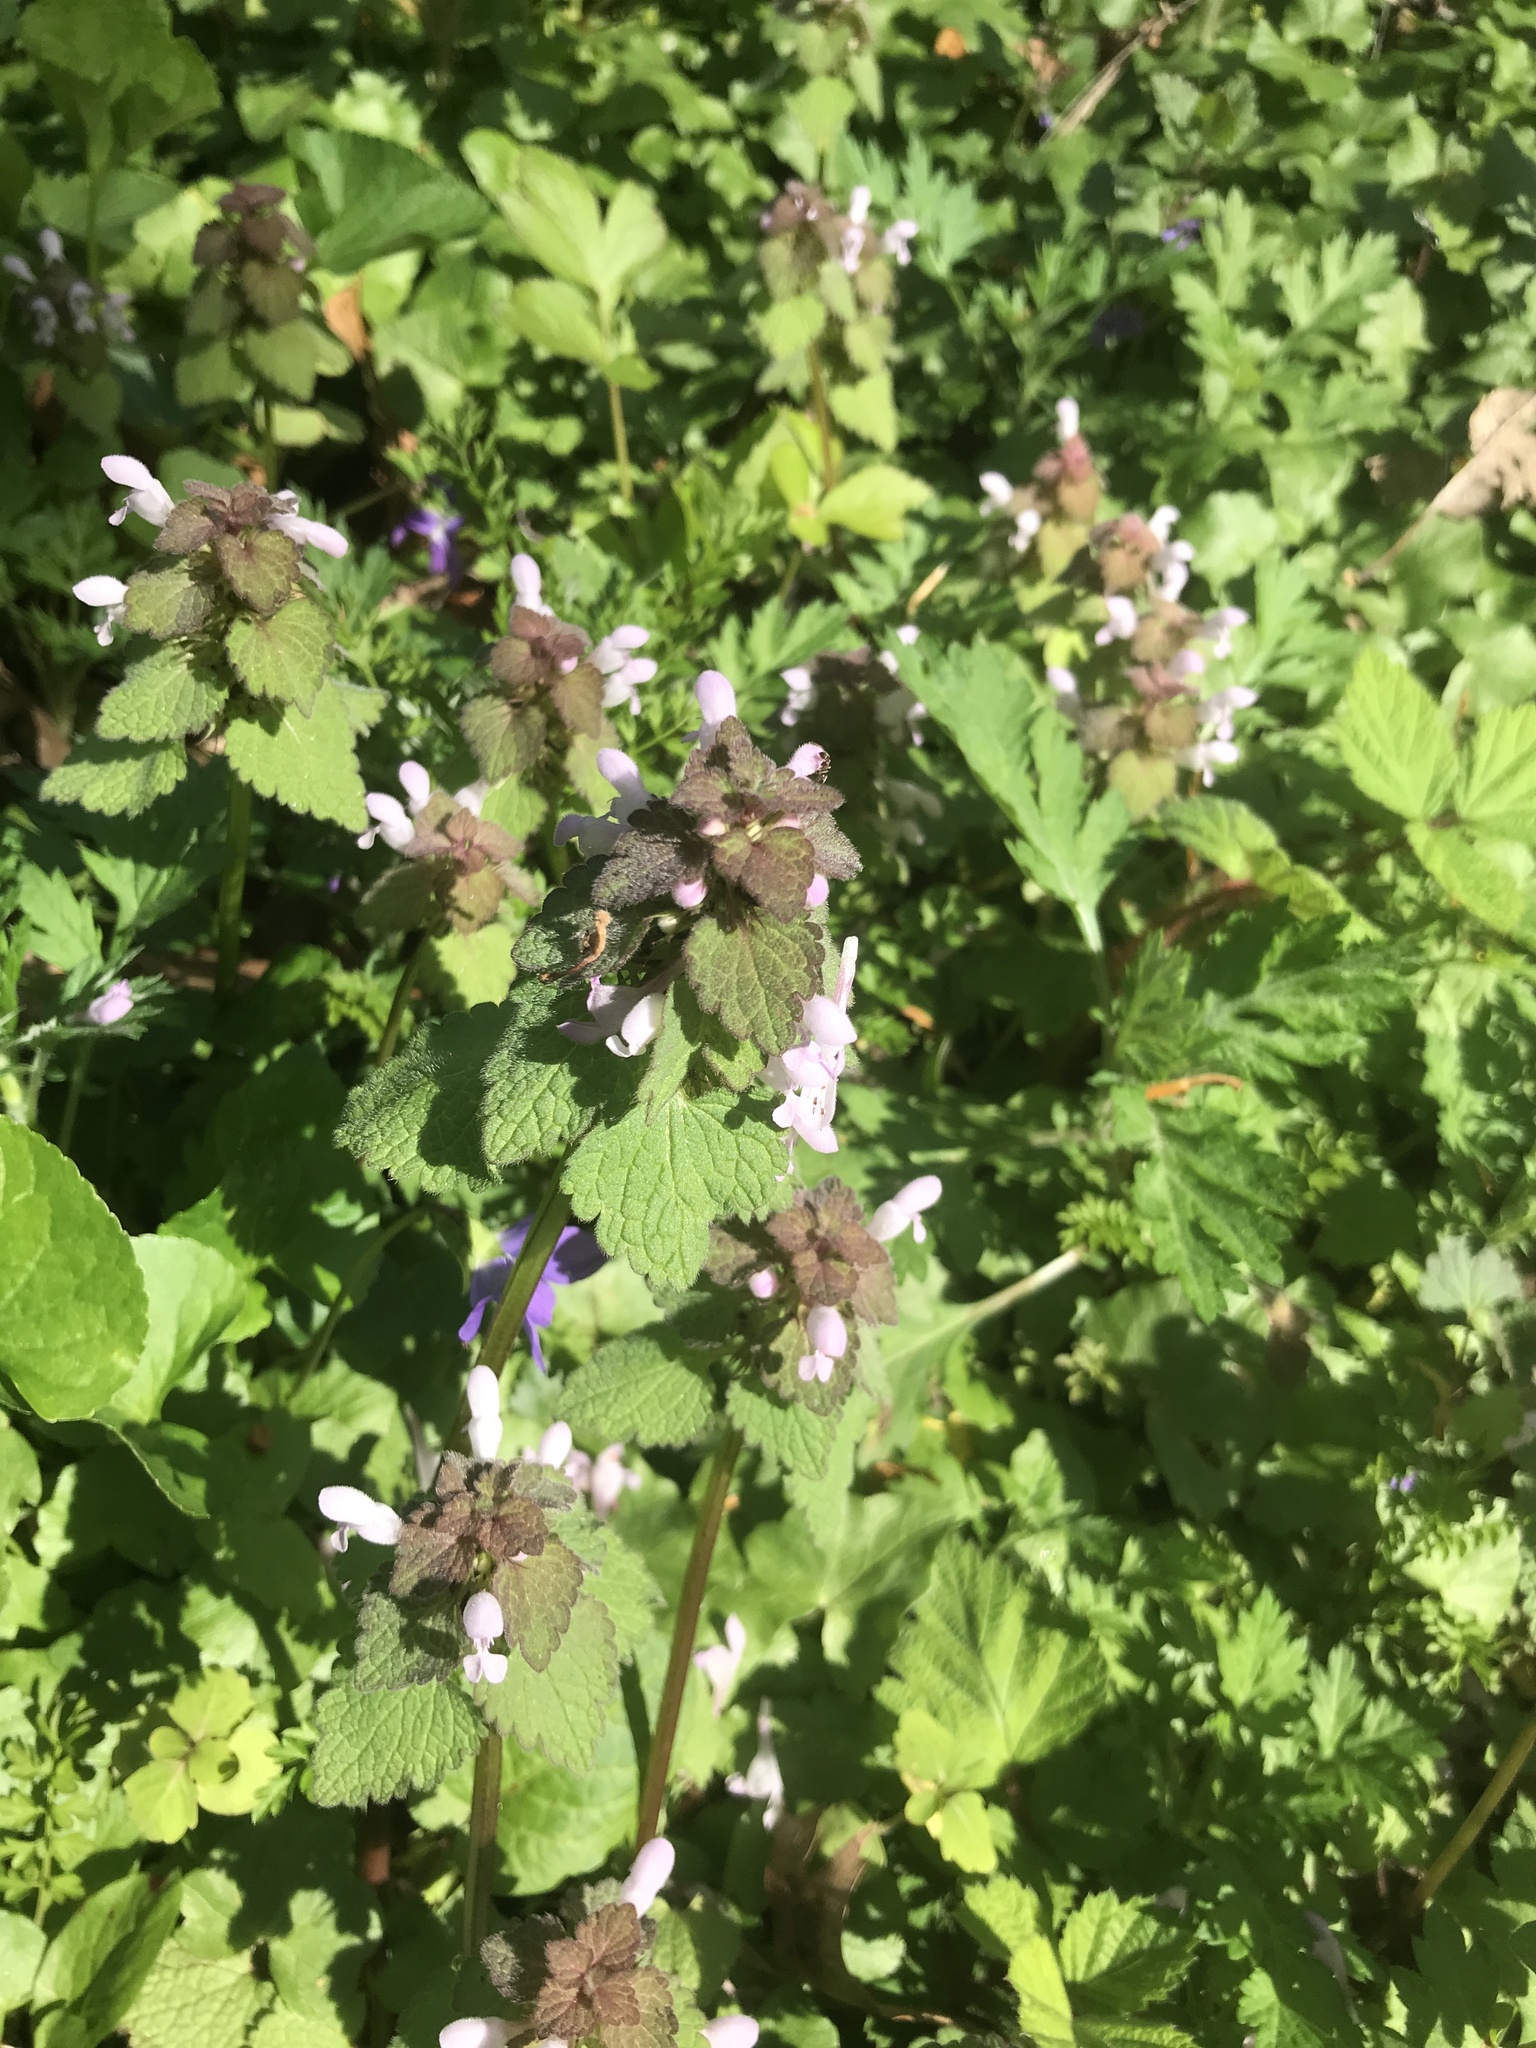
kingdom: Plantae
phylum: Tracheophyta
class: Magnoliopsida
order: Lamiales
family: Lamiaceae
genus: Lamium
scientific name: Lamium purpureum
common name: Red dead-nettle
